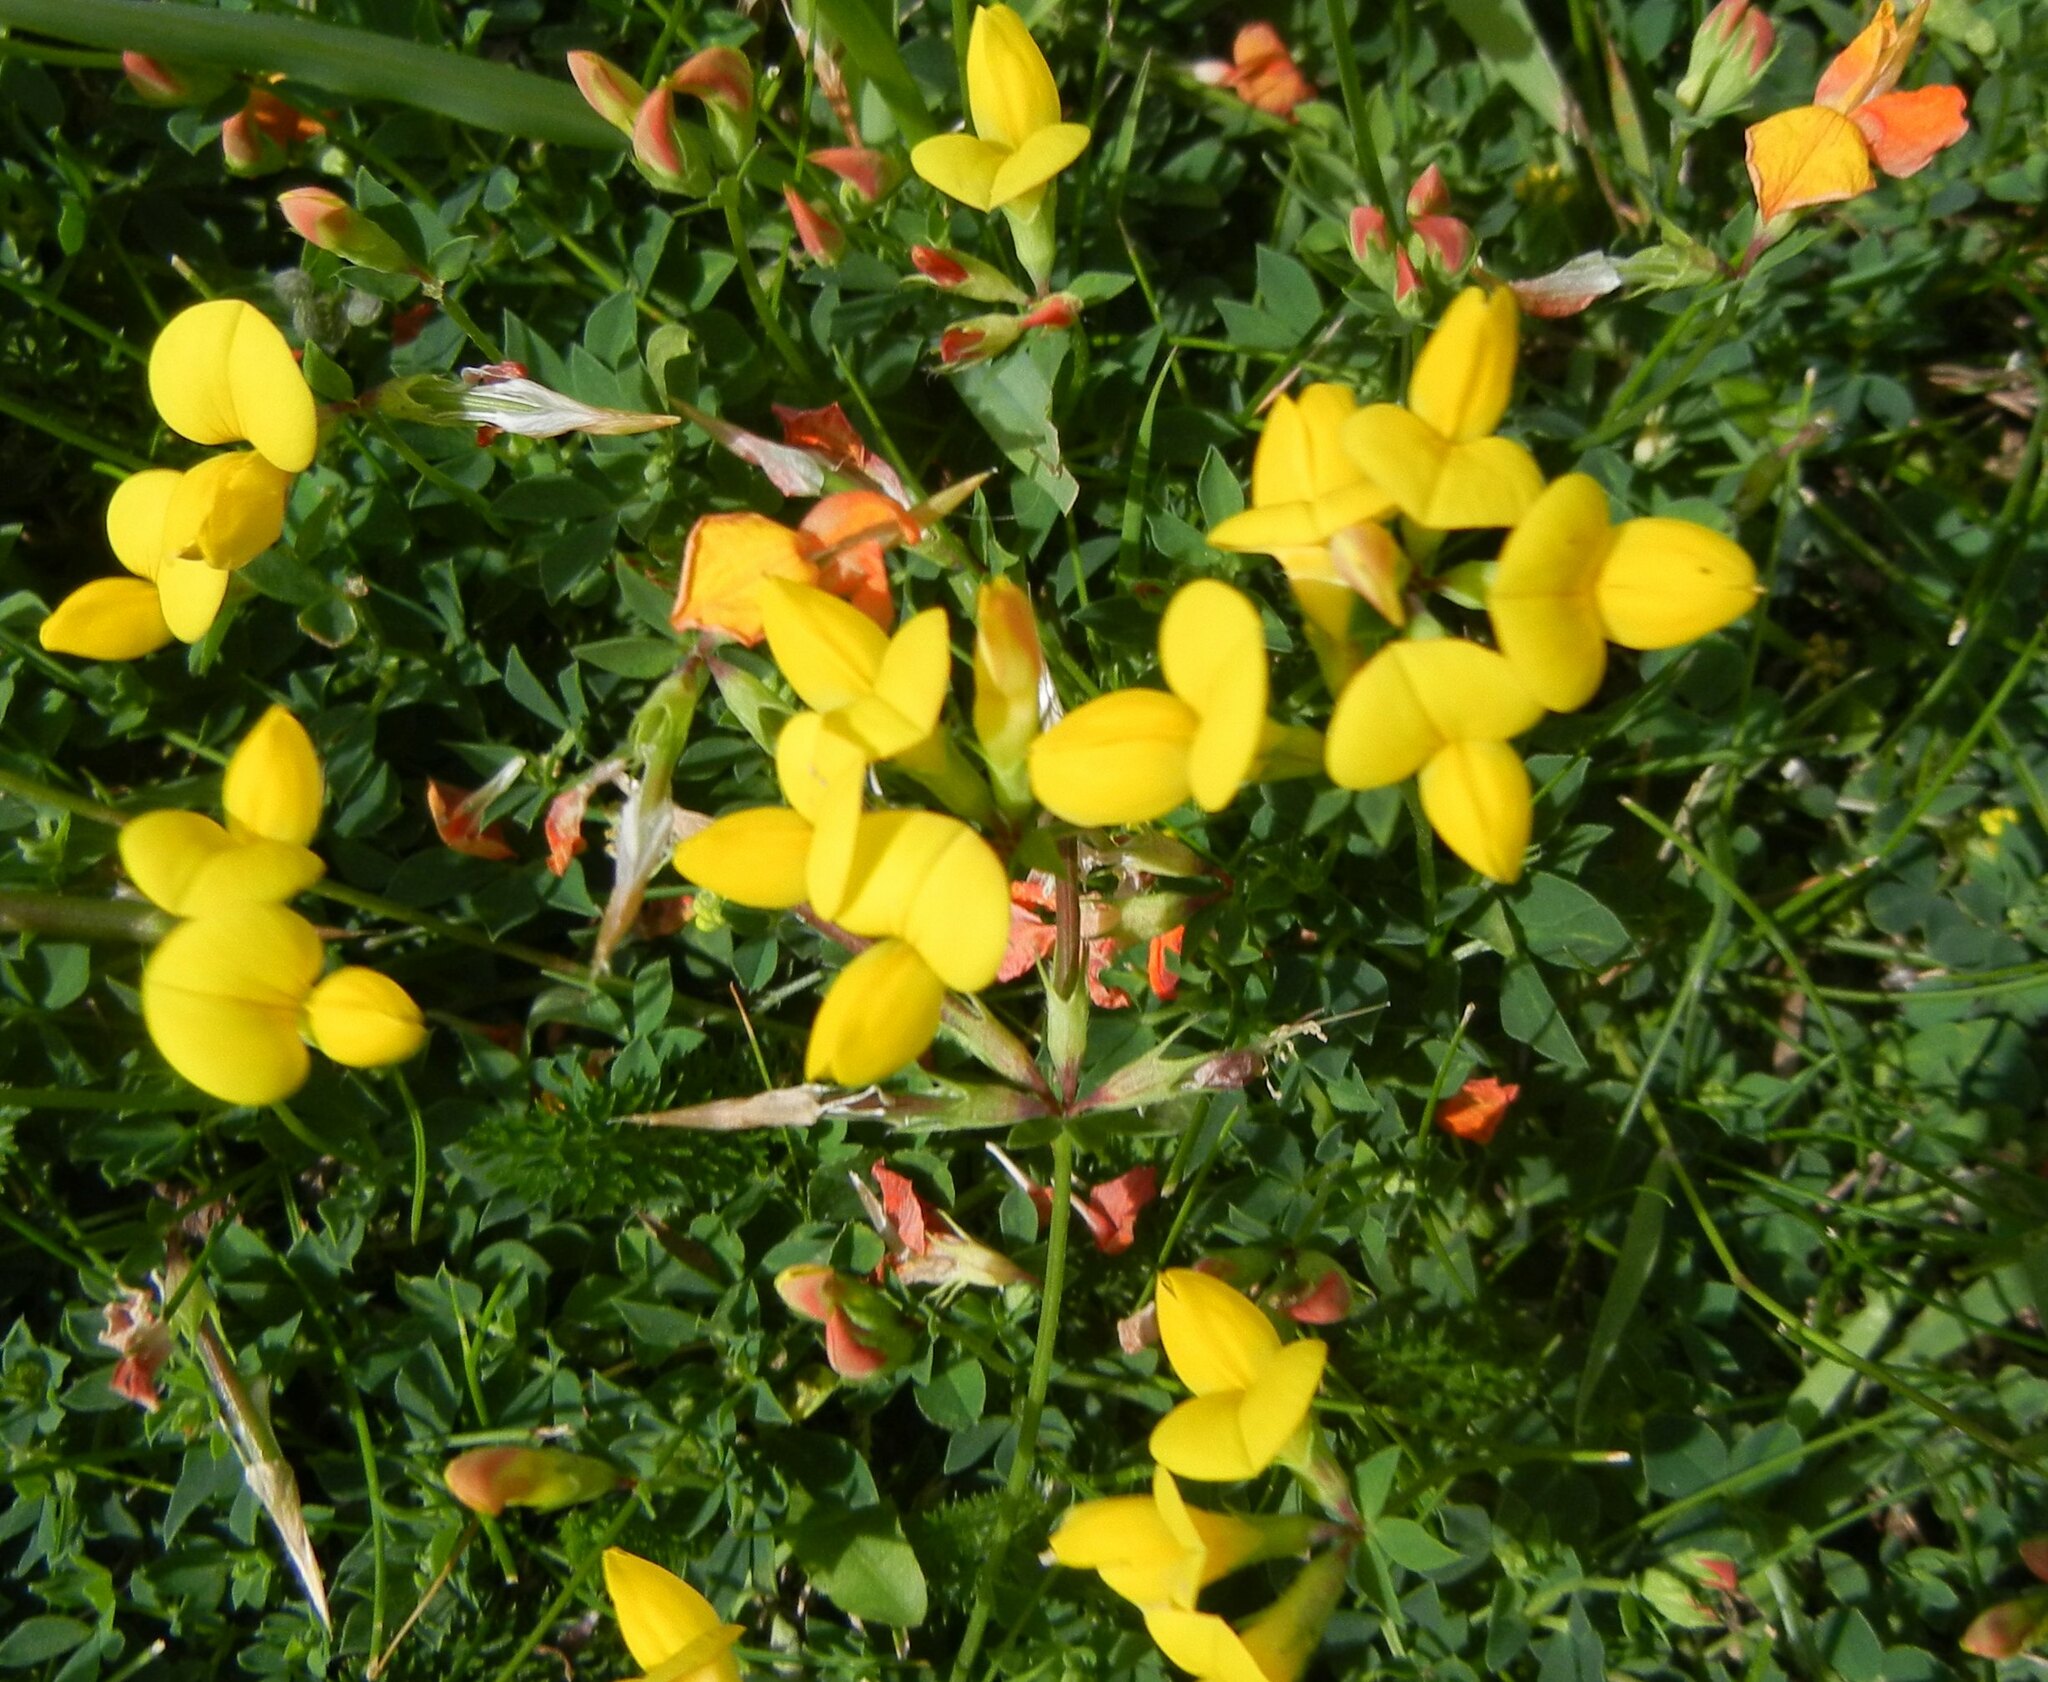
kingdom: Plantae
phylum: Tracheophyta
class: Magnoliopsida
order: Fabales
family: Fabaceae
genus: Lotus
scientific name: Lotus corniculatus
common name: Common bird's-foot-trefoil
